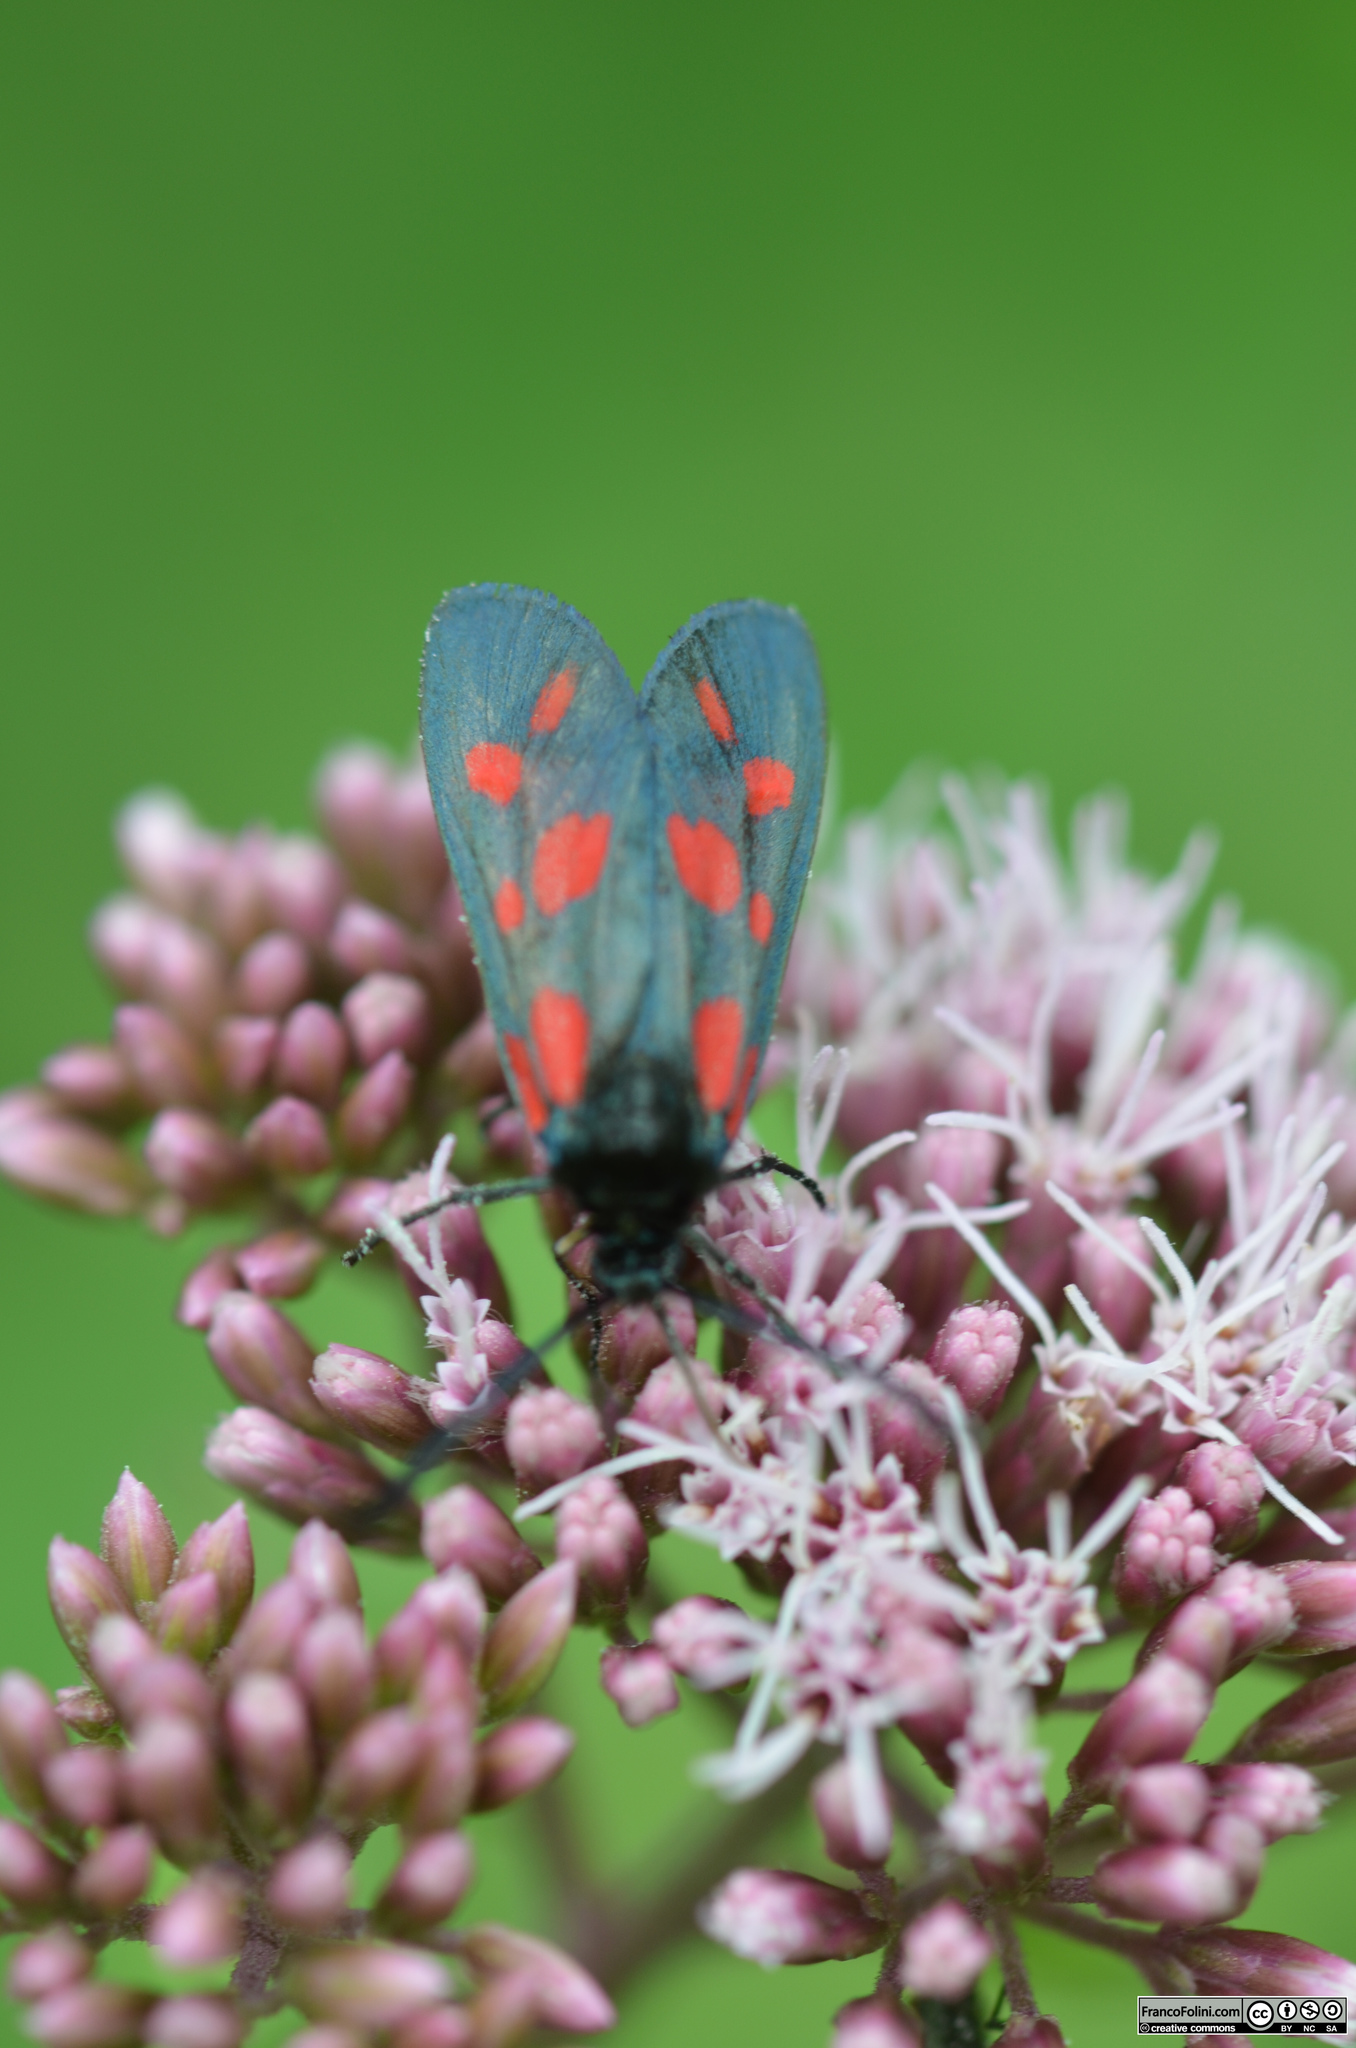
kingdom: Animalia
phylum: Arthropoda
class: Insecta
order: Lepidoptera
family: Zygaenidae
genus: Zygaena
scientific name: Zygaena filipendulae
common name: Six-spot burnet
